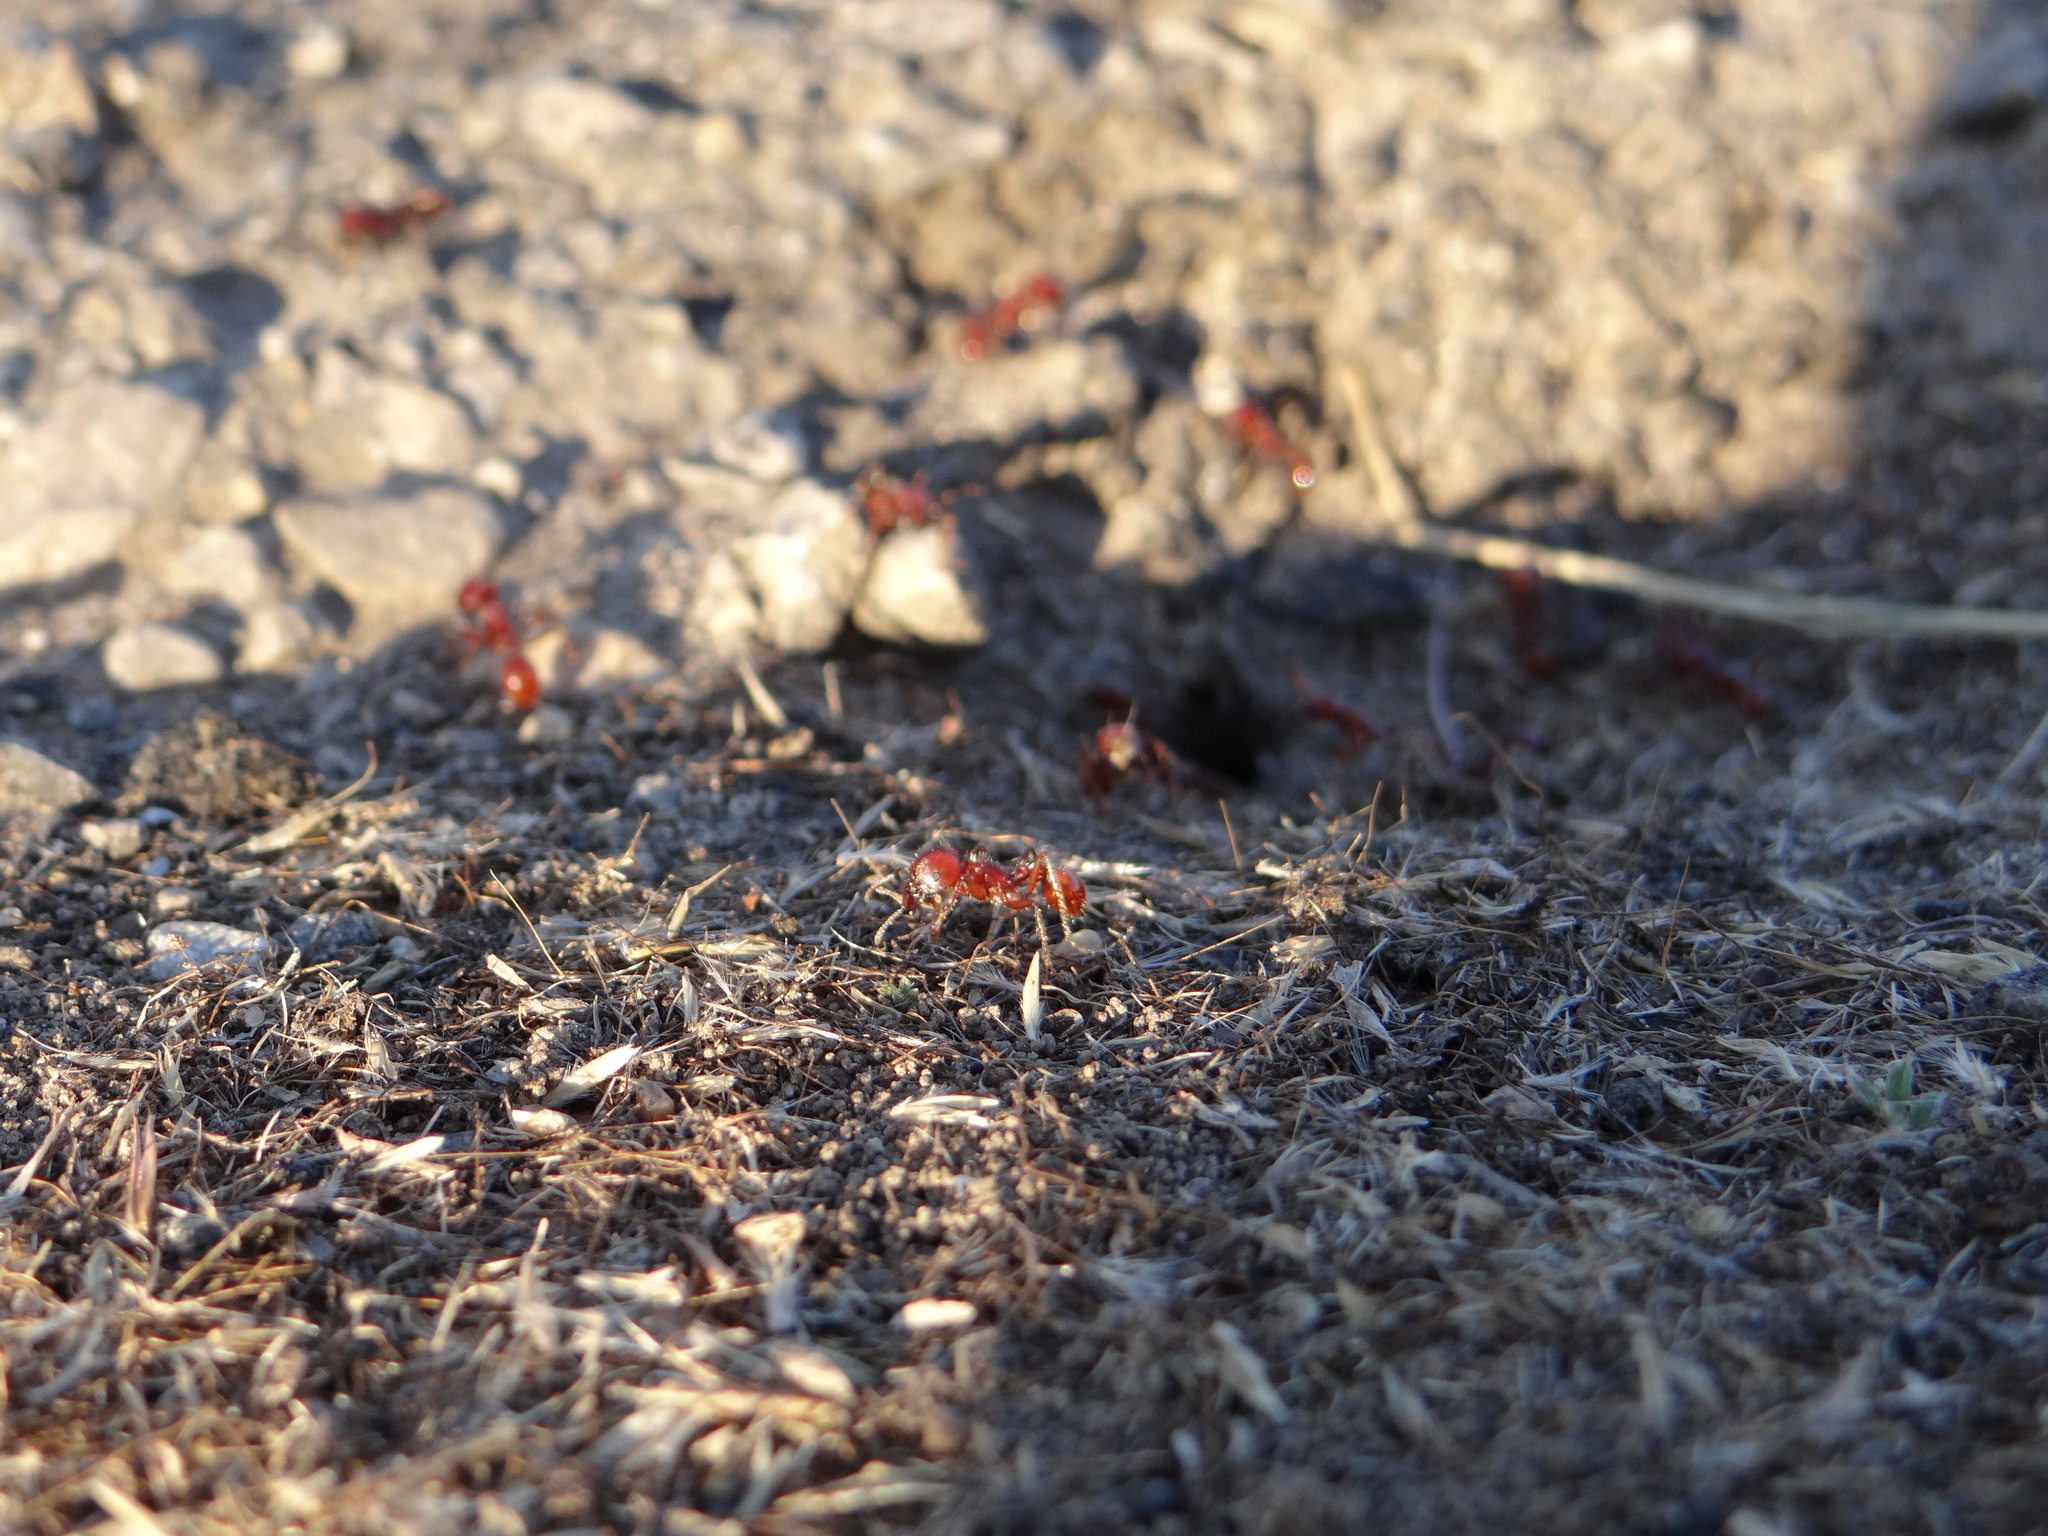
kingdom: Animalia
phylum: Arthropoda
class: Insecta
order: Hymenoptera
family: Formicidae
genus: Pogonomyrmex
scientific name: Pogonomyrmex barbatus
